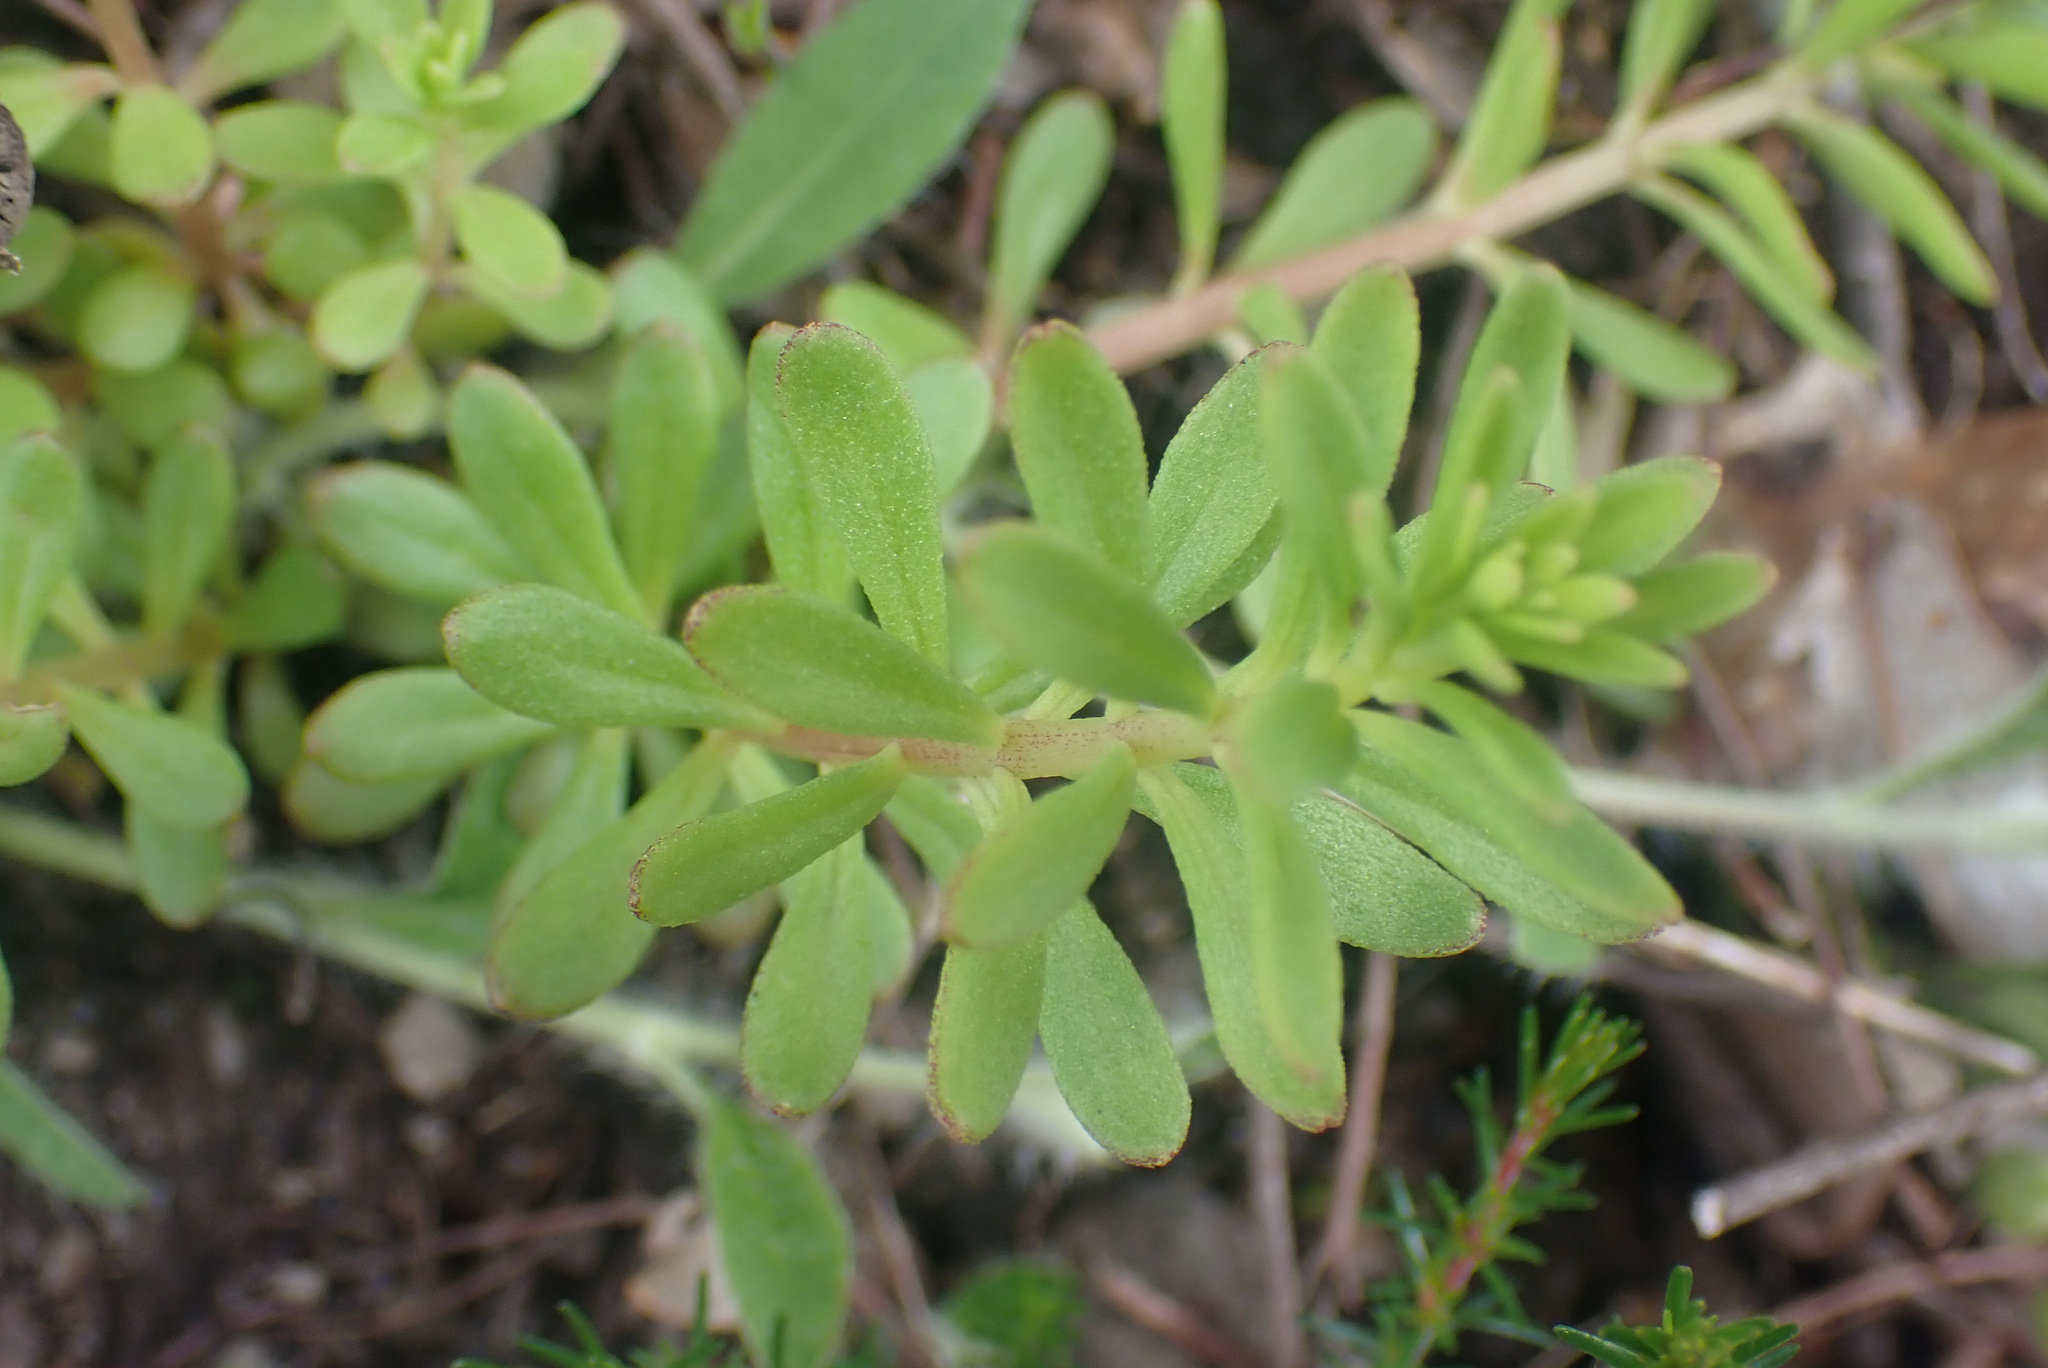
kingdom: Plantae
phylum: Tracheophyta
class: Magnoliopsida
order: Saxifragales
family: Crassulaceae
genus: Sedum
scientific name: Sedum cepaea
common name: Pink stonecrop
